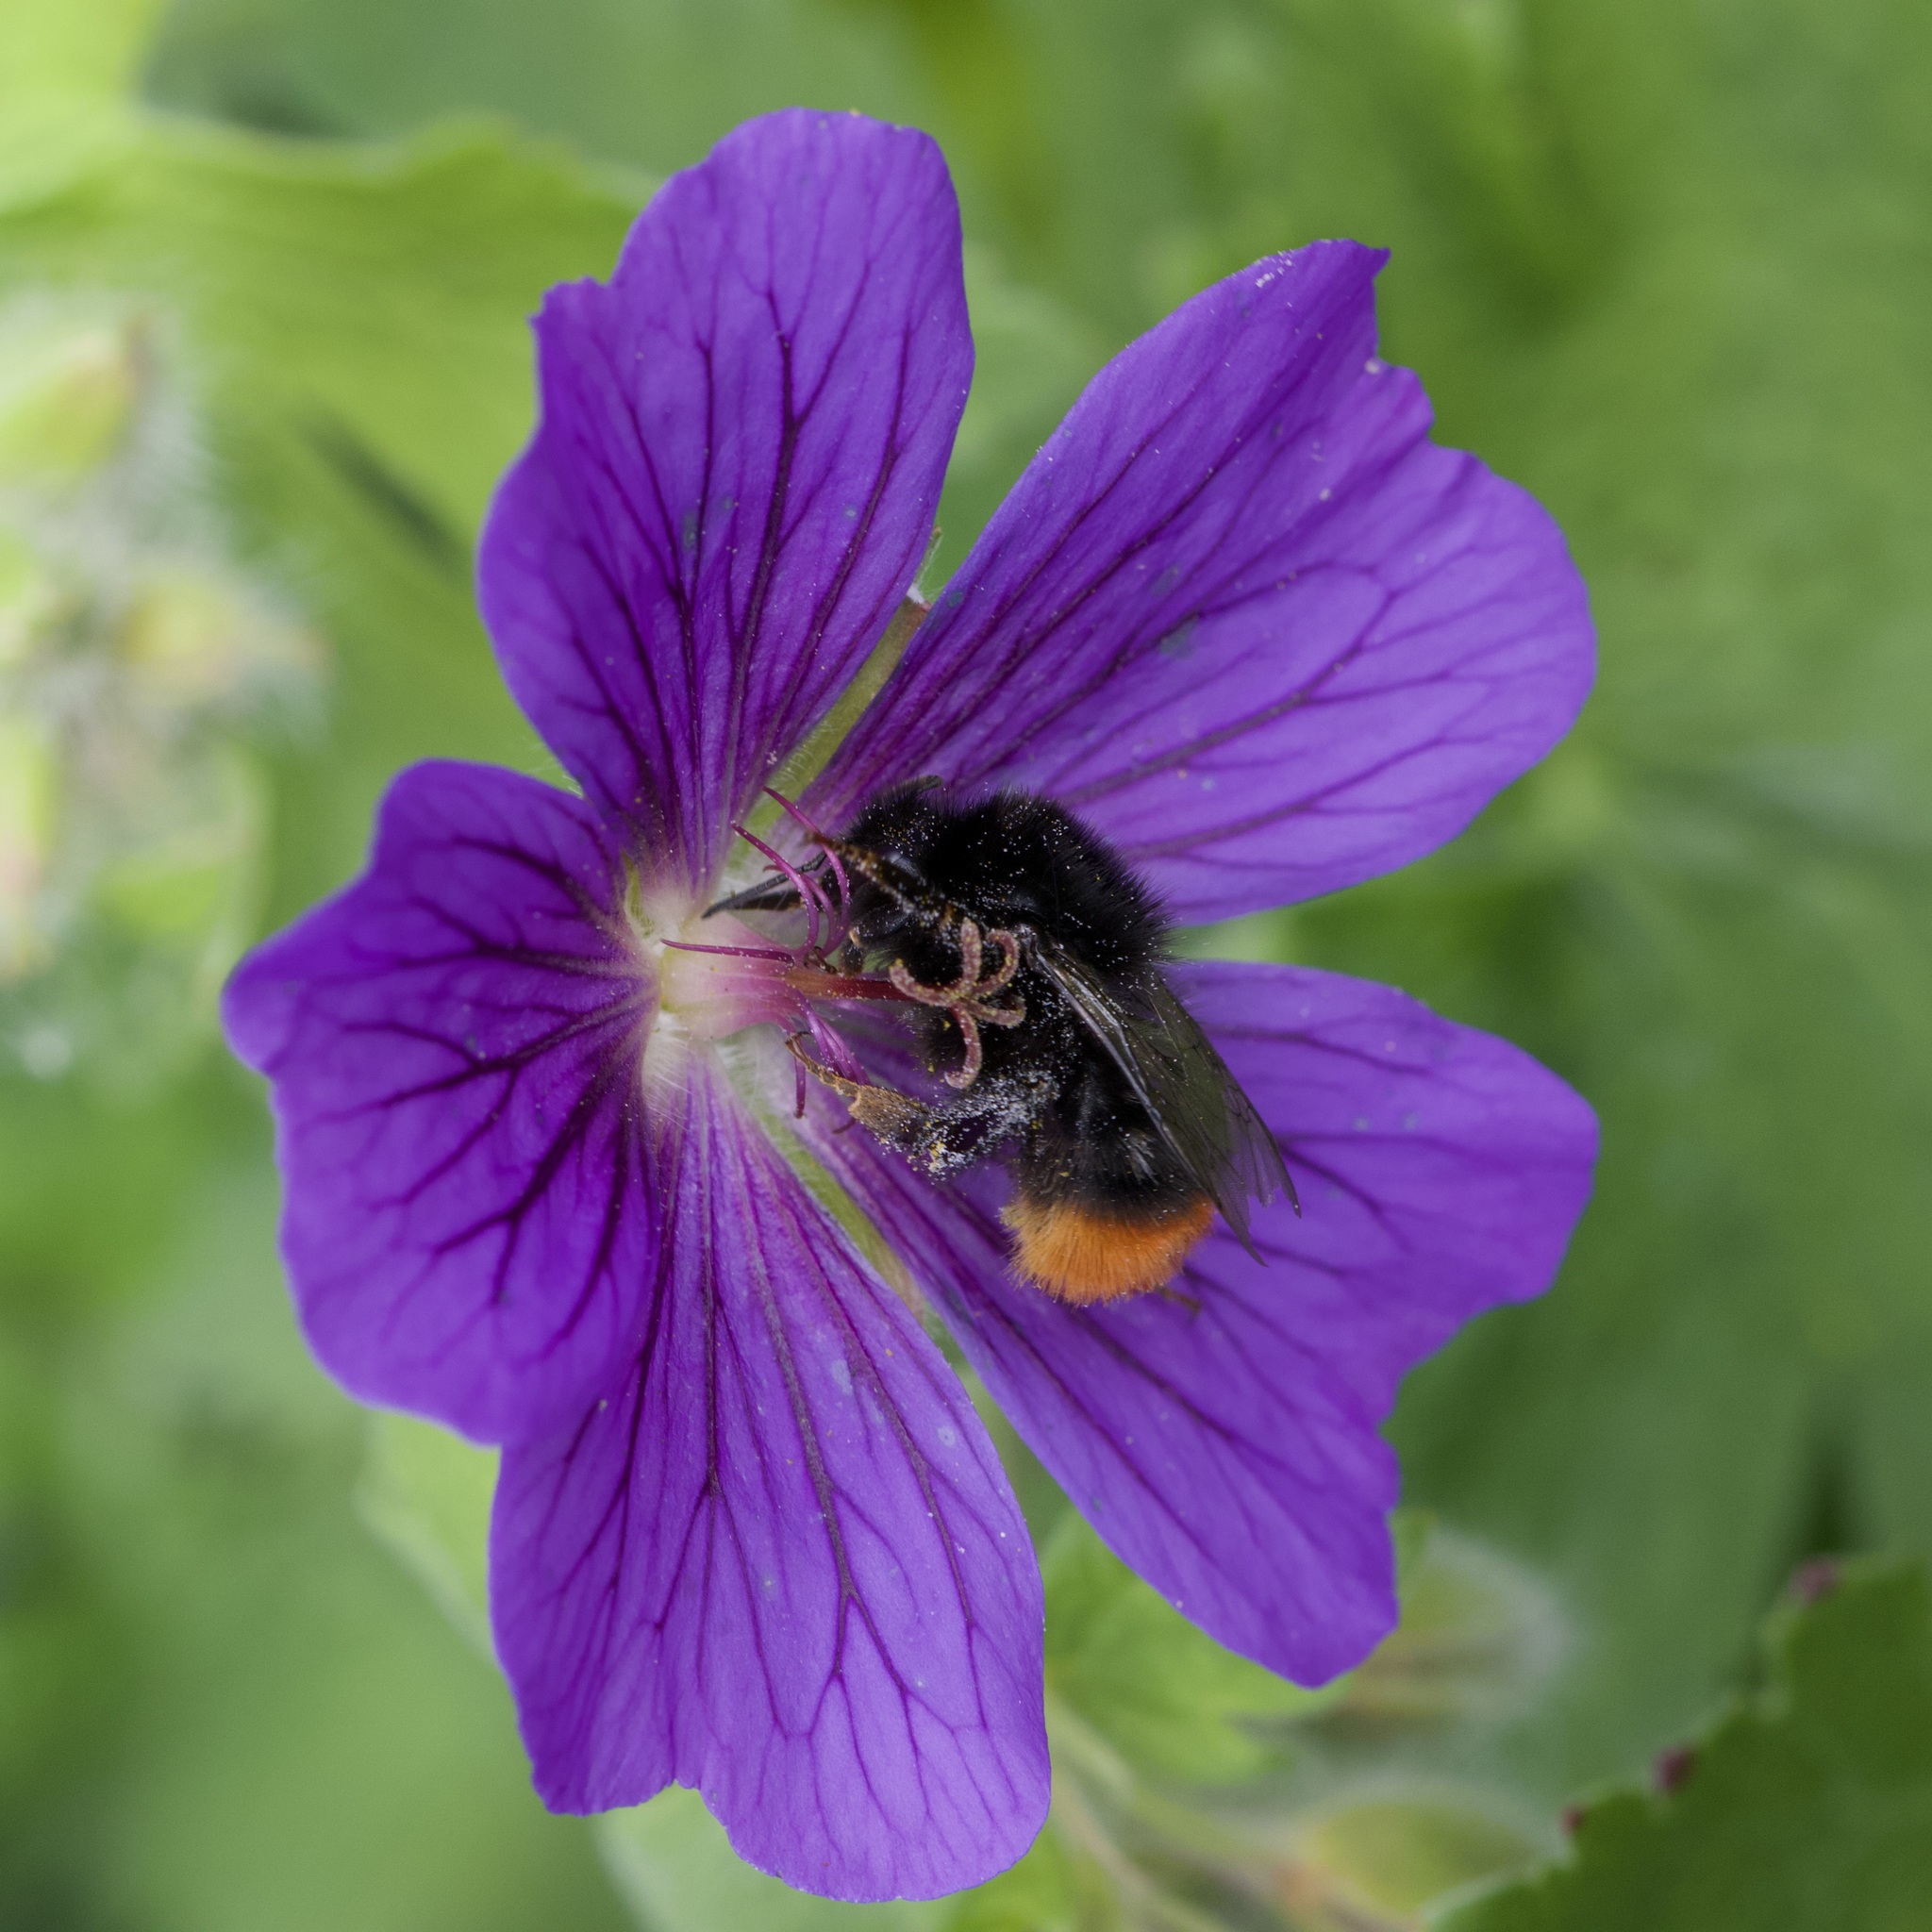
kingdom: Animalia
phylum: Arthropoda
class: Insecta
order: Hymenoptera
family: Apidae
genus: Bombus
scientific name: Bombus lapidarius
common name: Large red-tailed humble-bee
